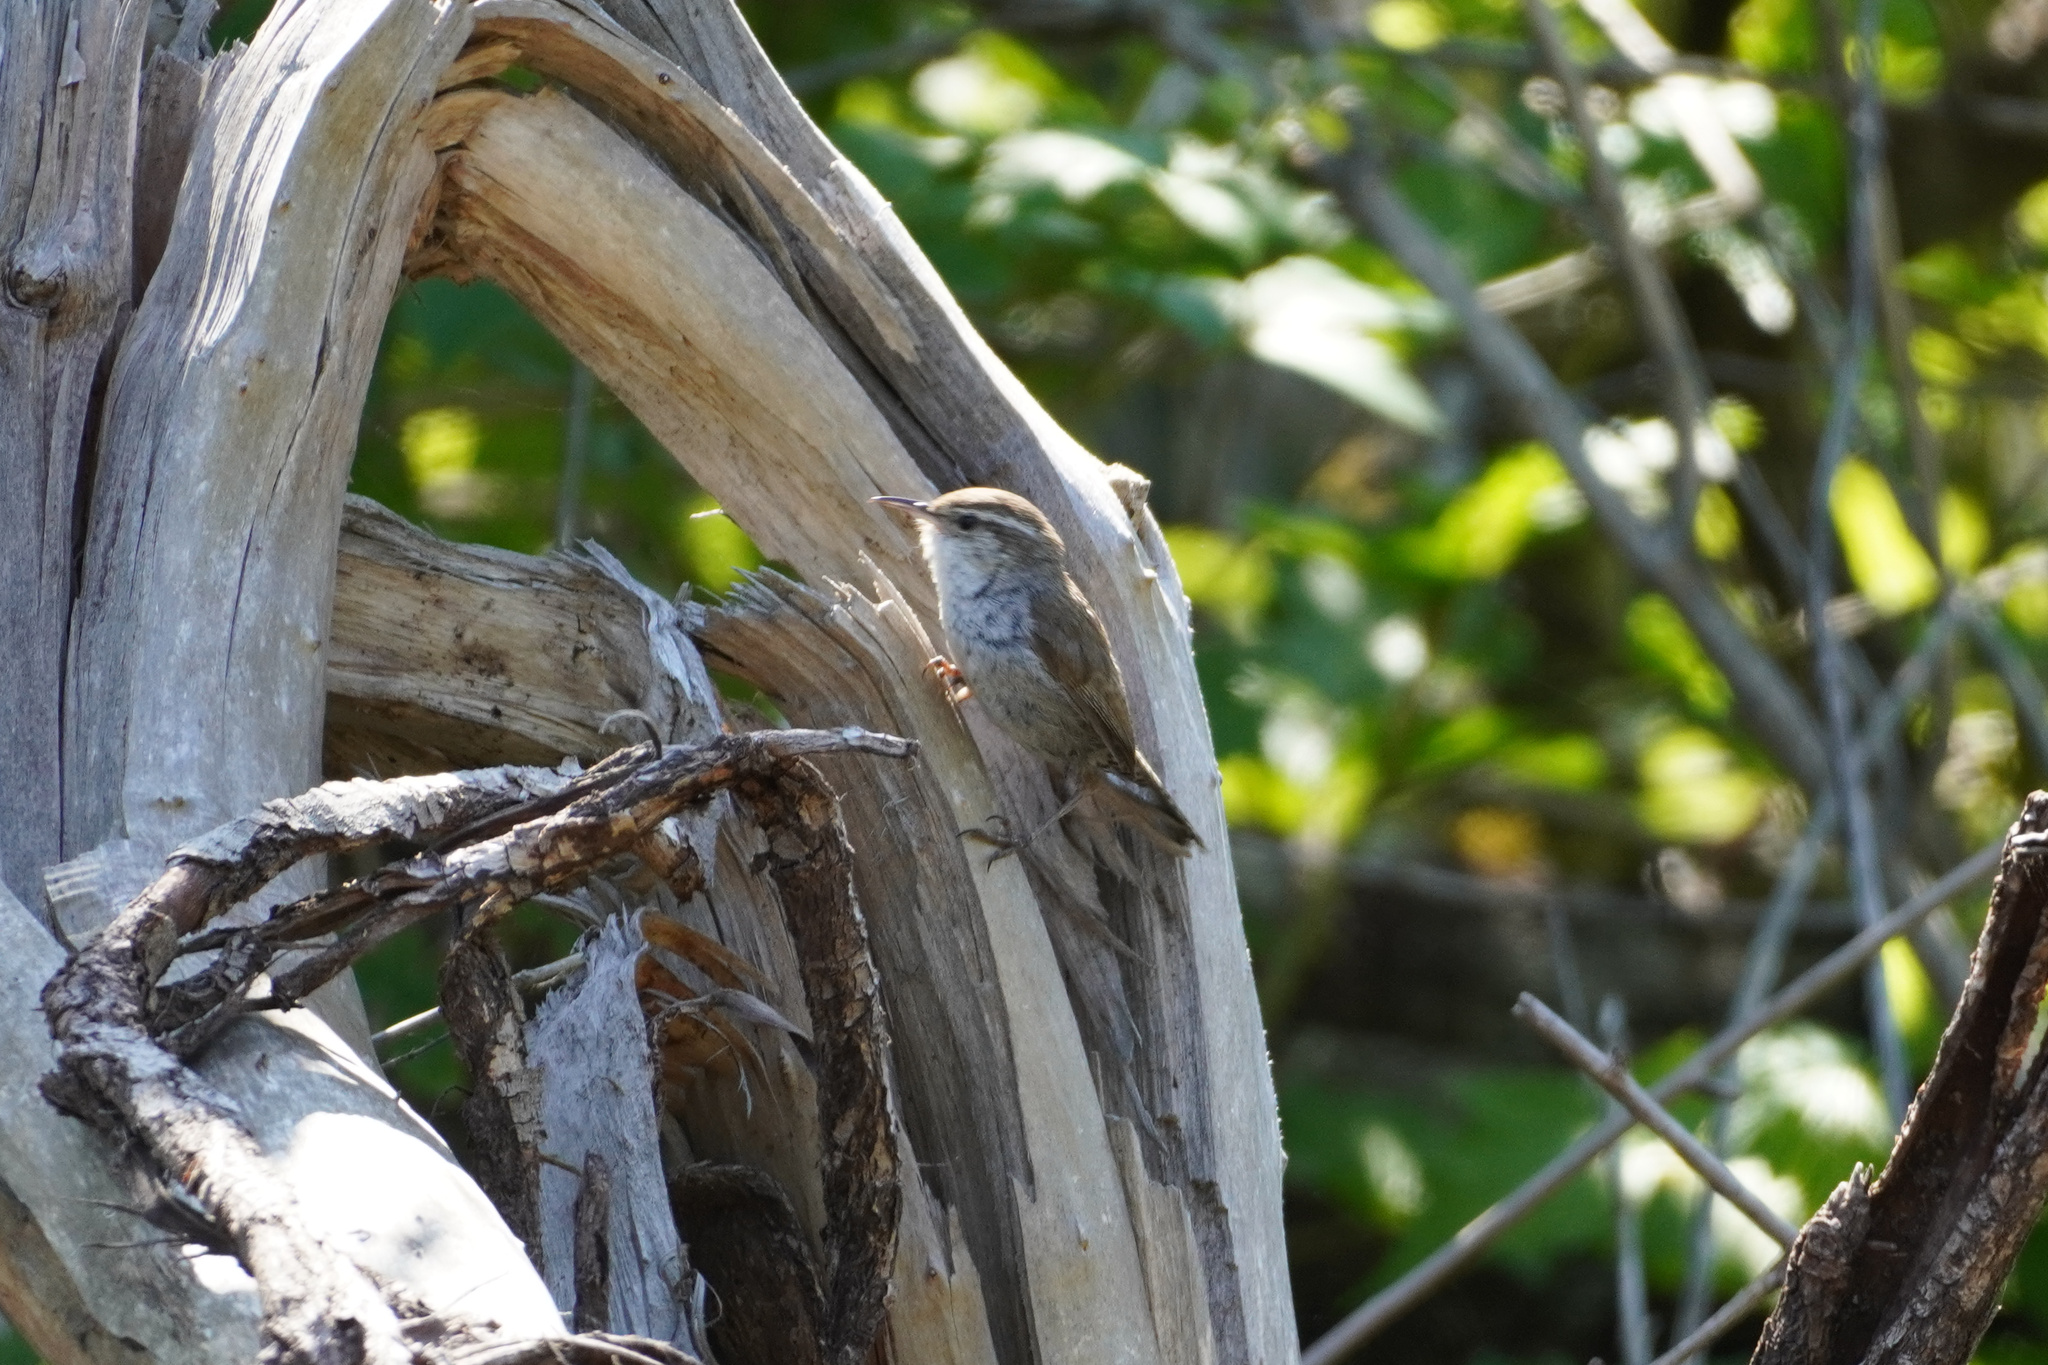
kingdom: Animalia
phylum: Chordata
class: Aves
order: Passeriformes
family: Troglodytidae
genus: Thryomanes
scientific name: Thryomanes bewickii
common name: Bewick's wren
